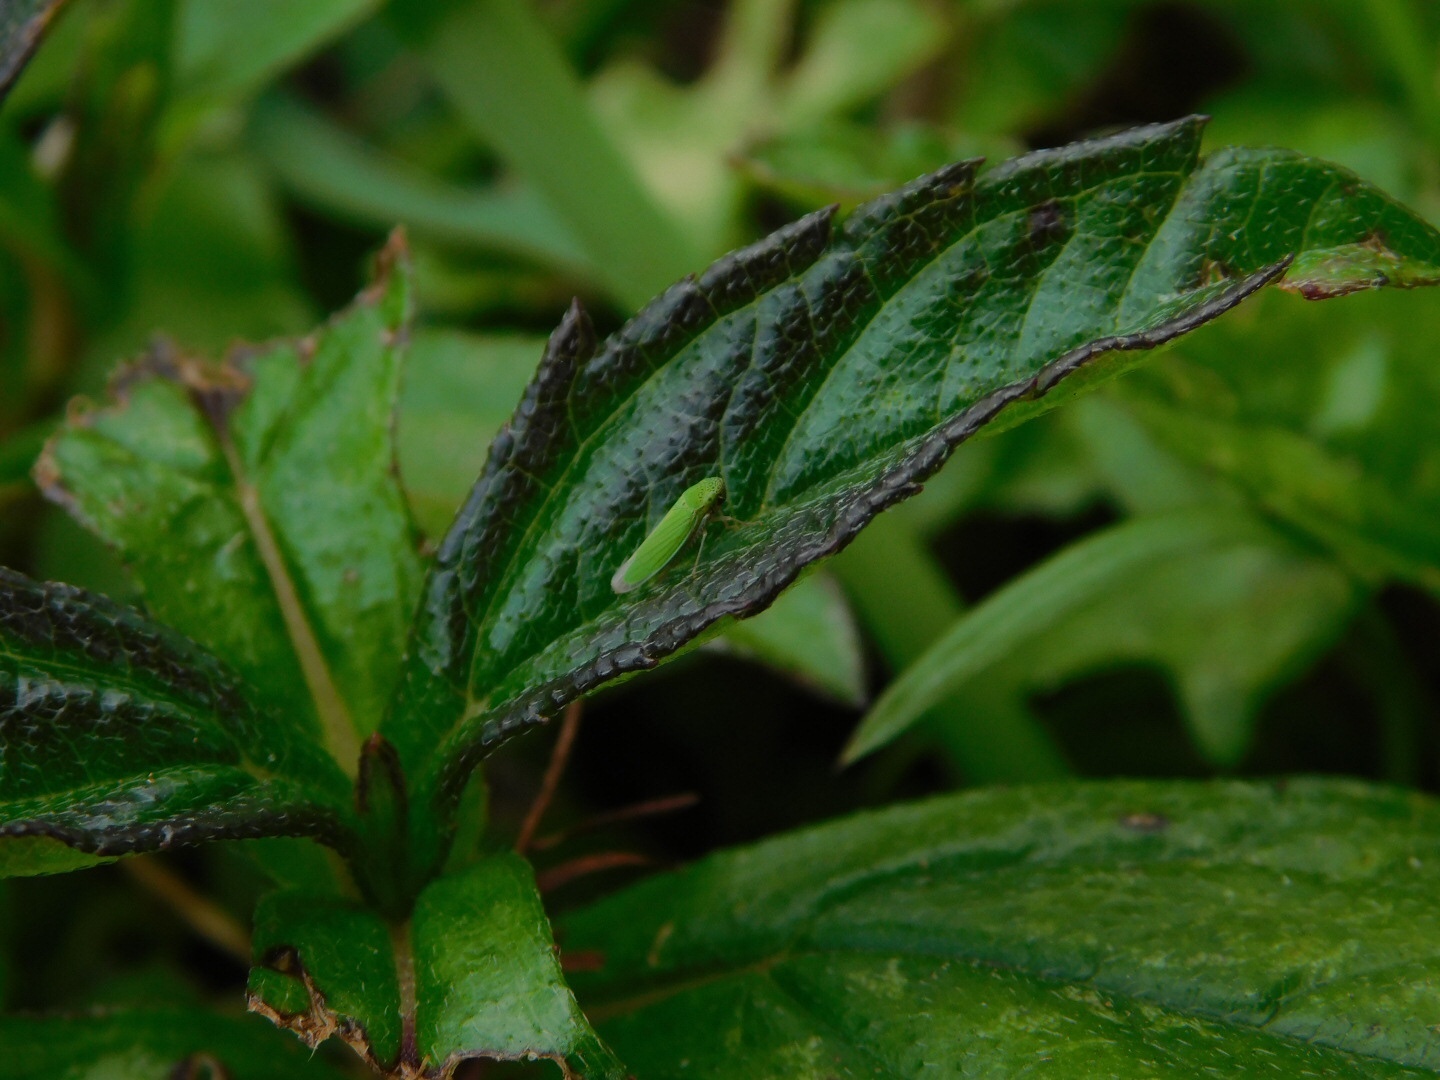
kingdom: Animalia
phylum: Arthropoda
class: Insecta
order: Hemiptera
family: Cicadellidae
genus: Hortensia
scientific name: Hortensia similis
